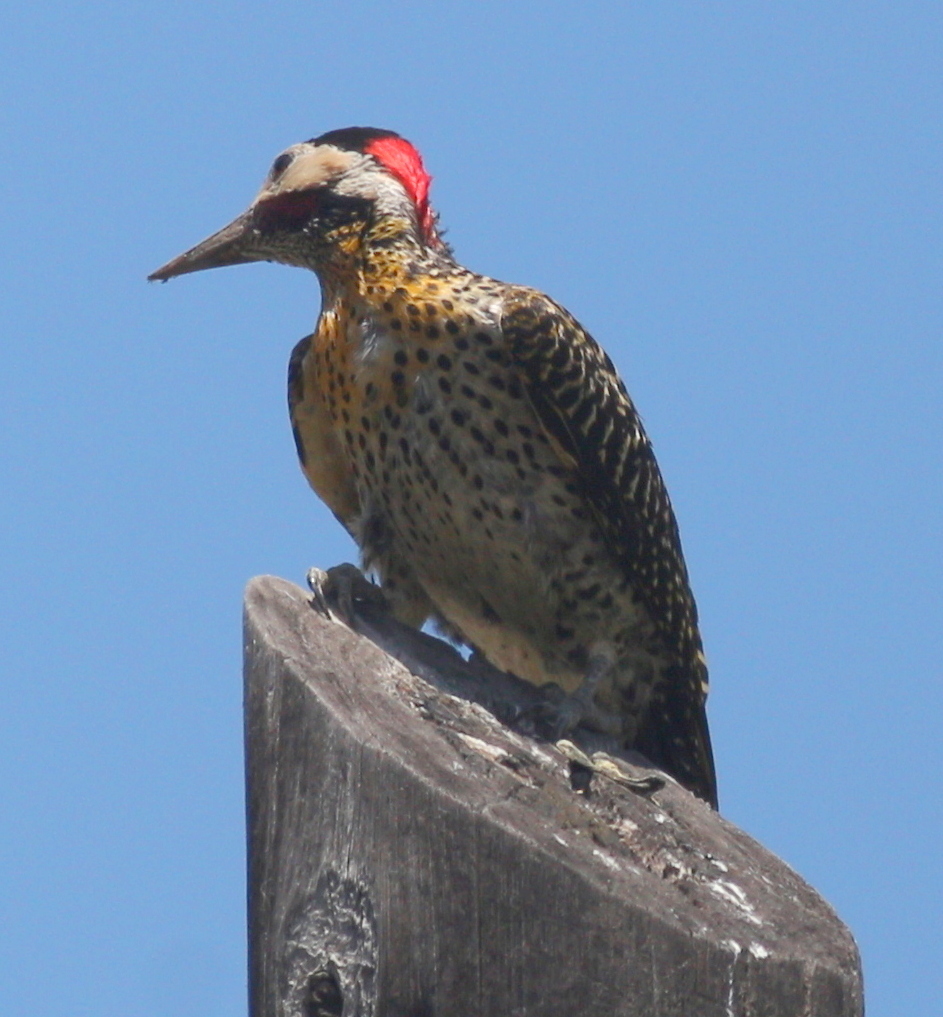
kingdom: Animalia
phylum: Chordata
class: Aves
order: Piciformes
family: Picidae
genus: Colaptes
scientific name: Colaptes melanochloros
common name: Green-barred woodpecker
